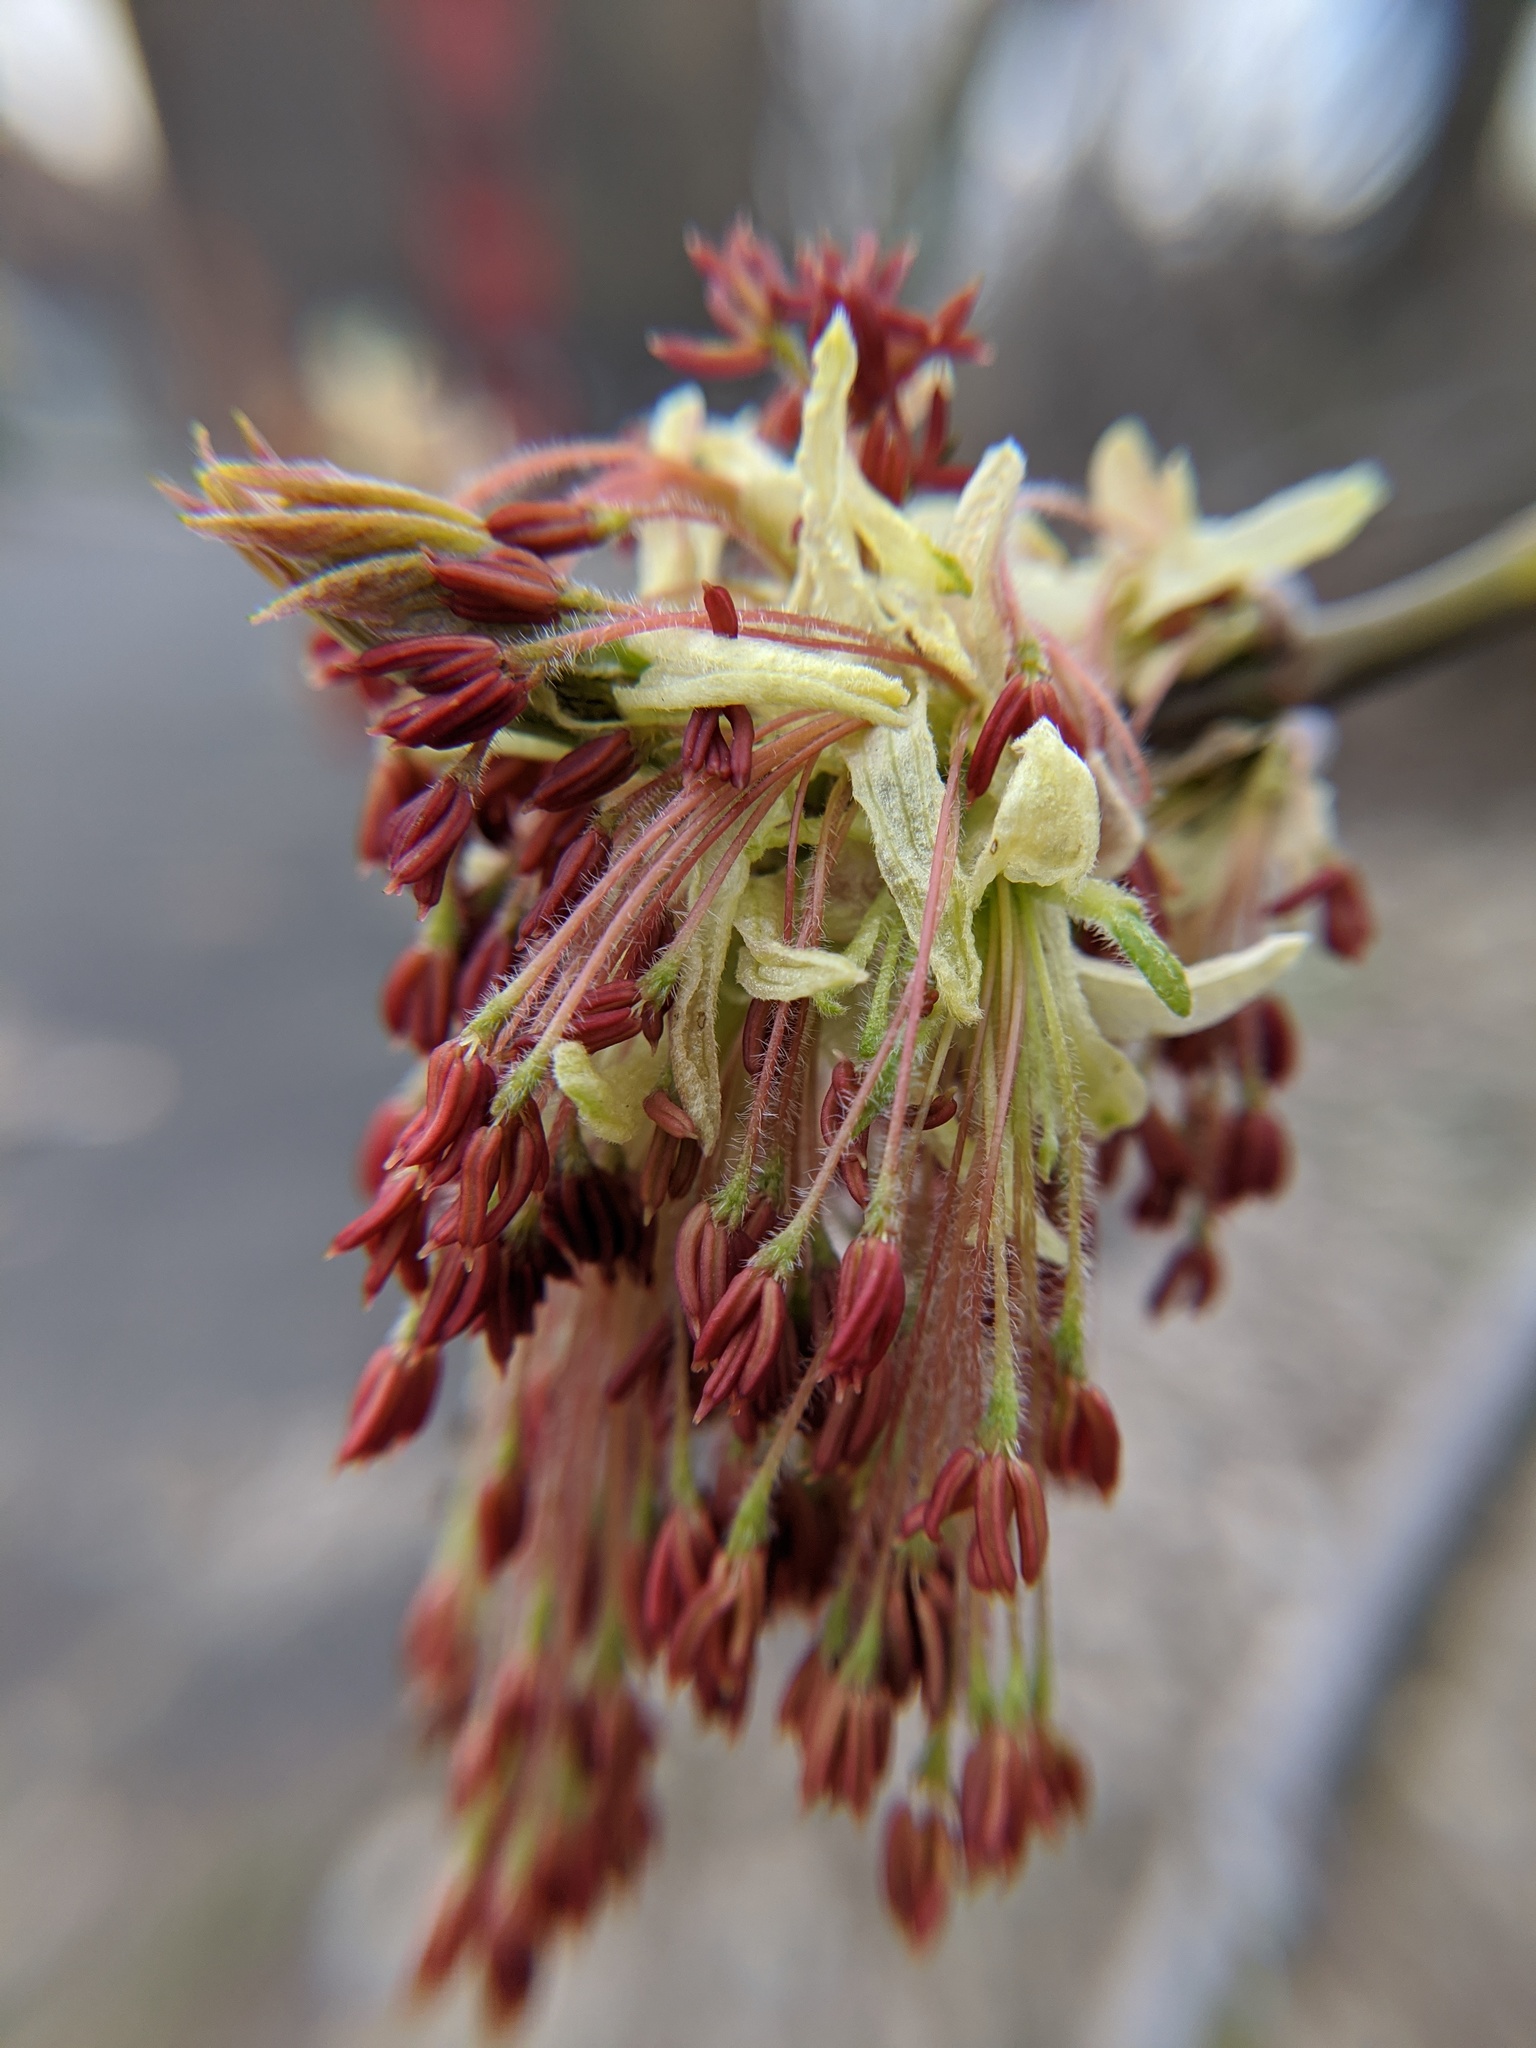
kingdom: Plantae
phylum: Tracheophyta
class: Magnoliopsida
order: Sapindales
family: Sapindaceae
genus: Acer
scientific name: Acer negundo
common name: Ashleaf maple
